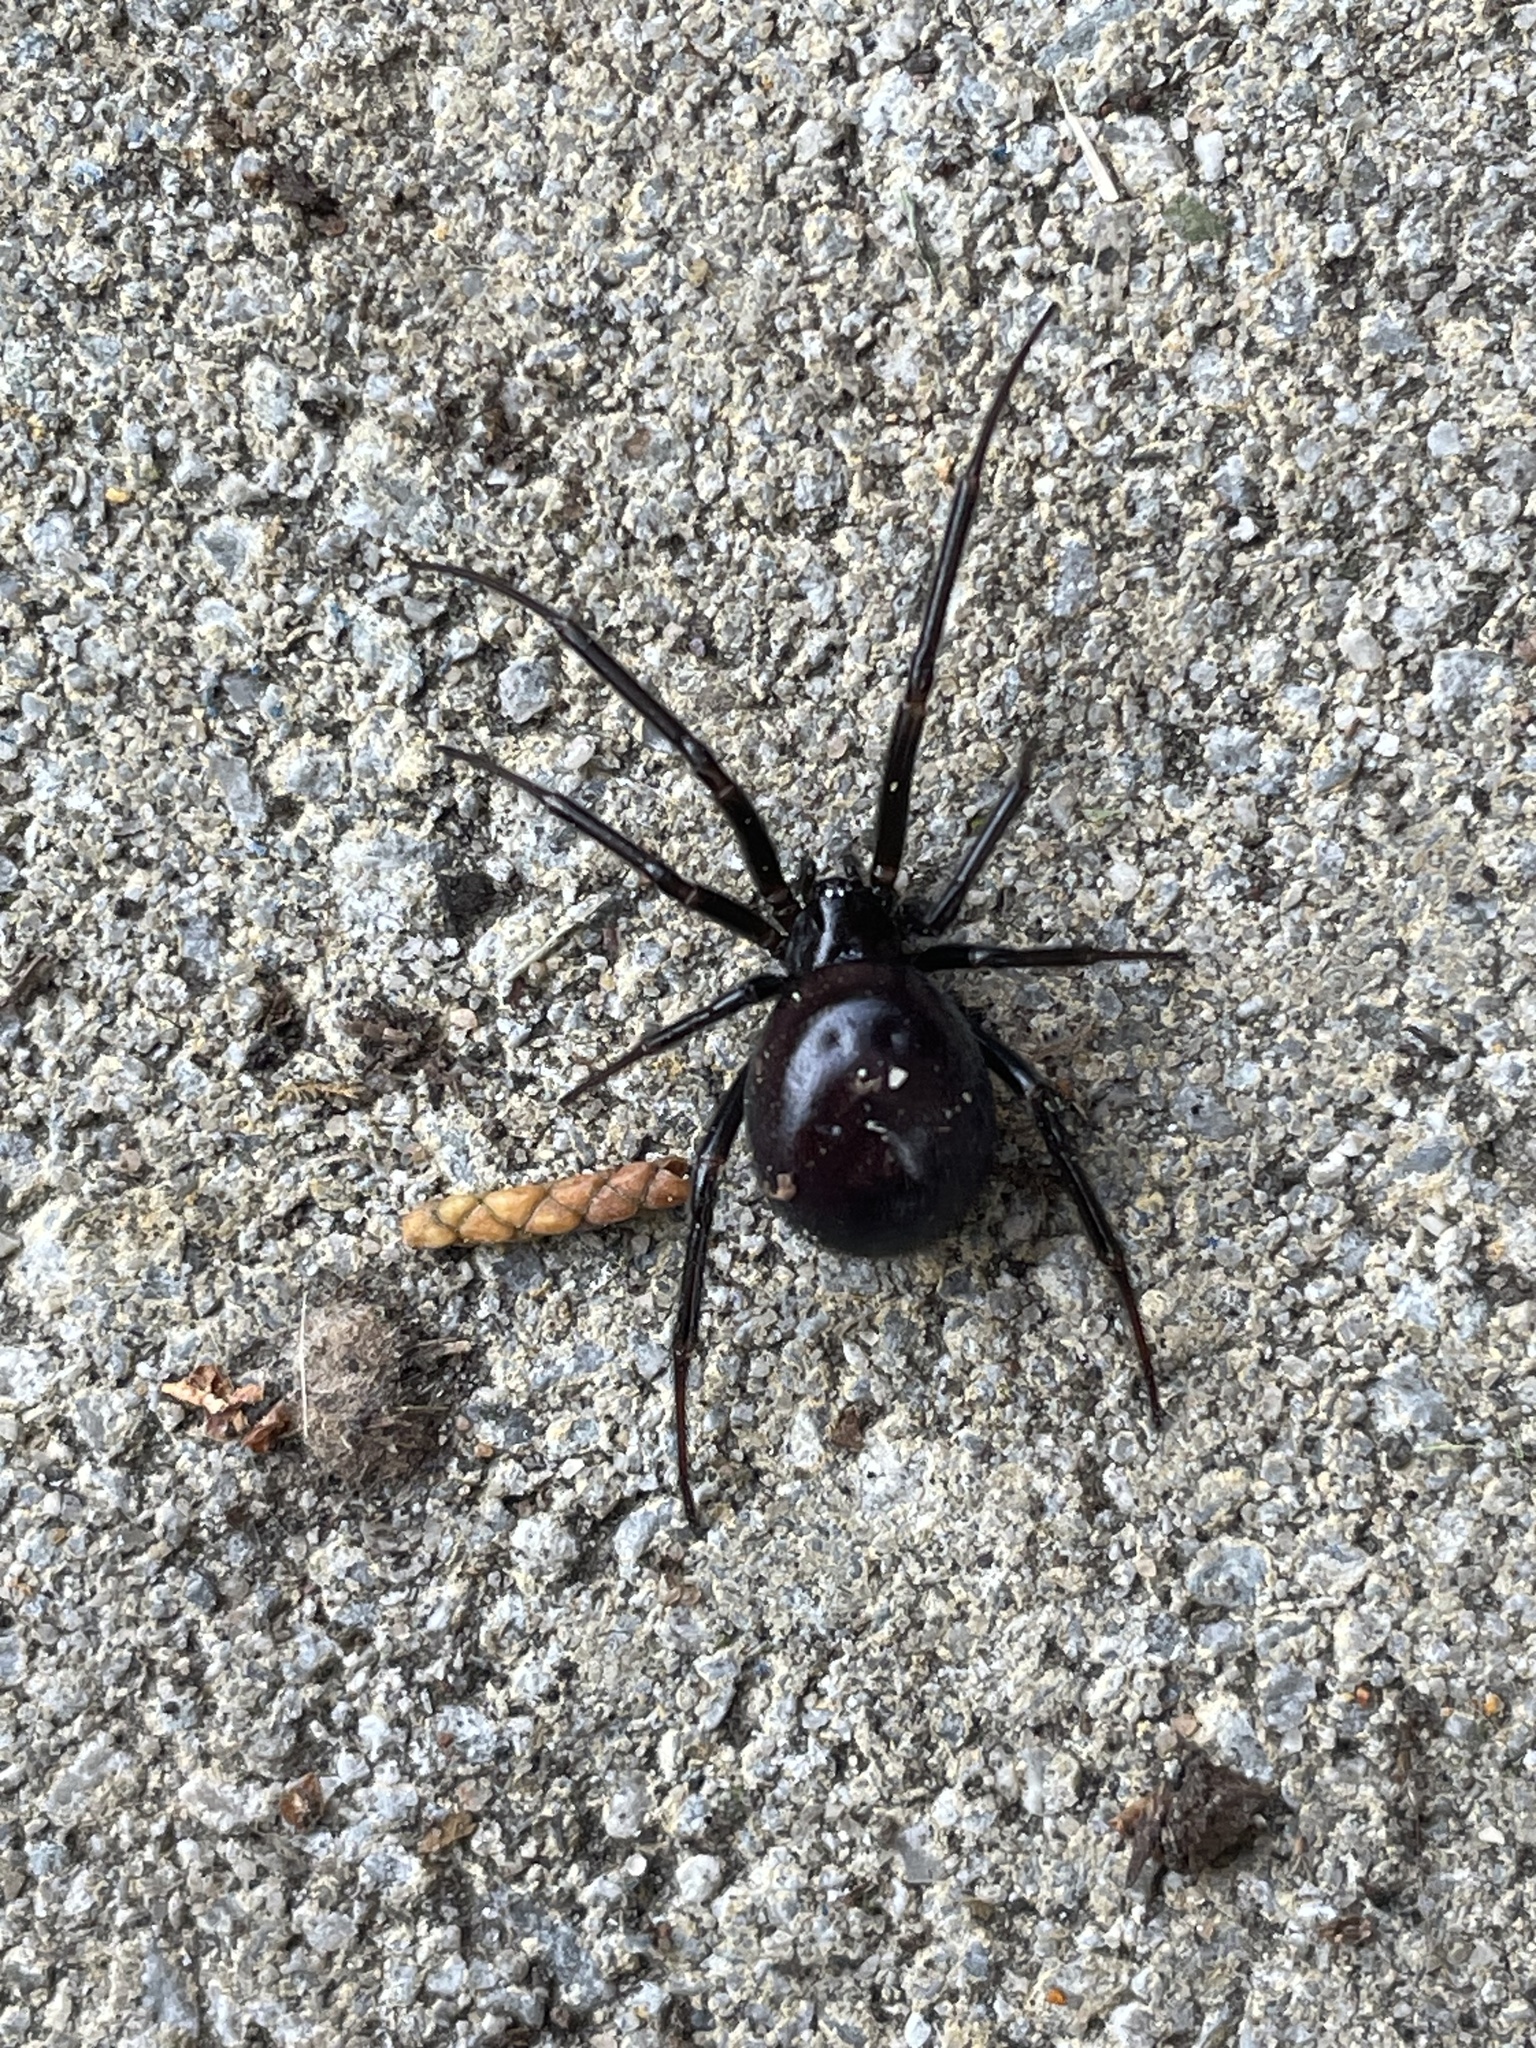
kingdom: Animalia
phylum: Arthropoda
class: Arachnida
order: Araneae
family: Theridiidae
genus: Steatoda
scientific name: Steatoda grossa
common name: False black widow
